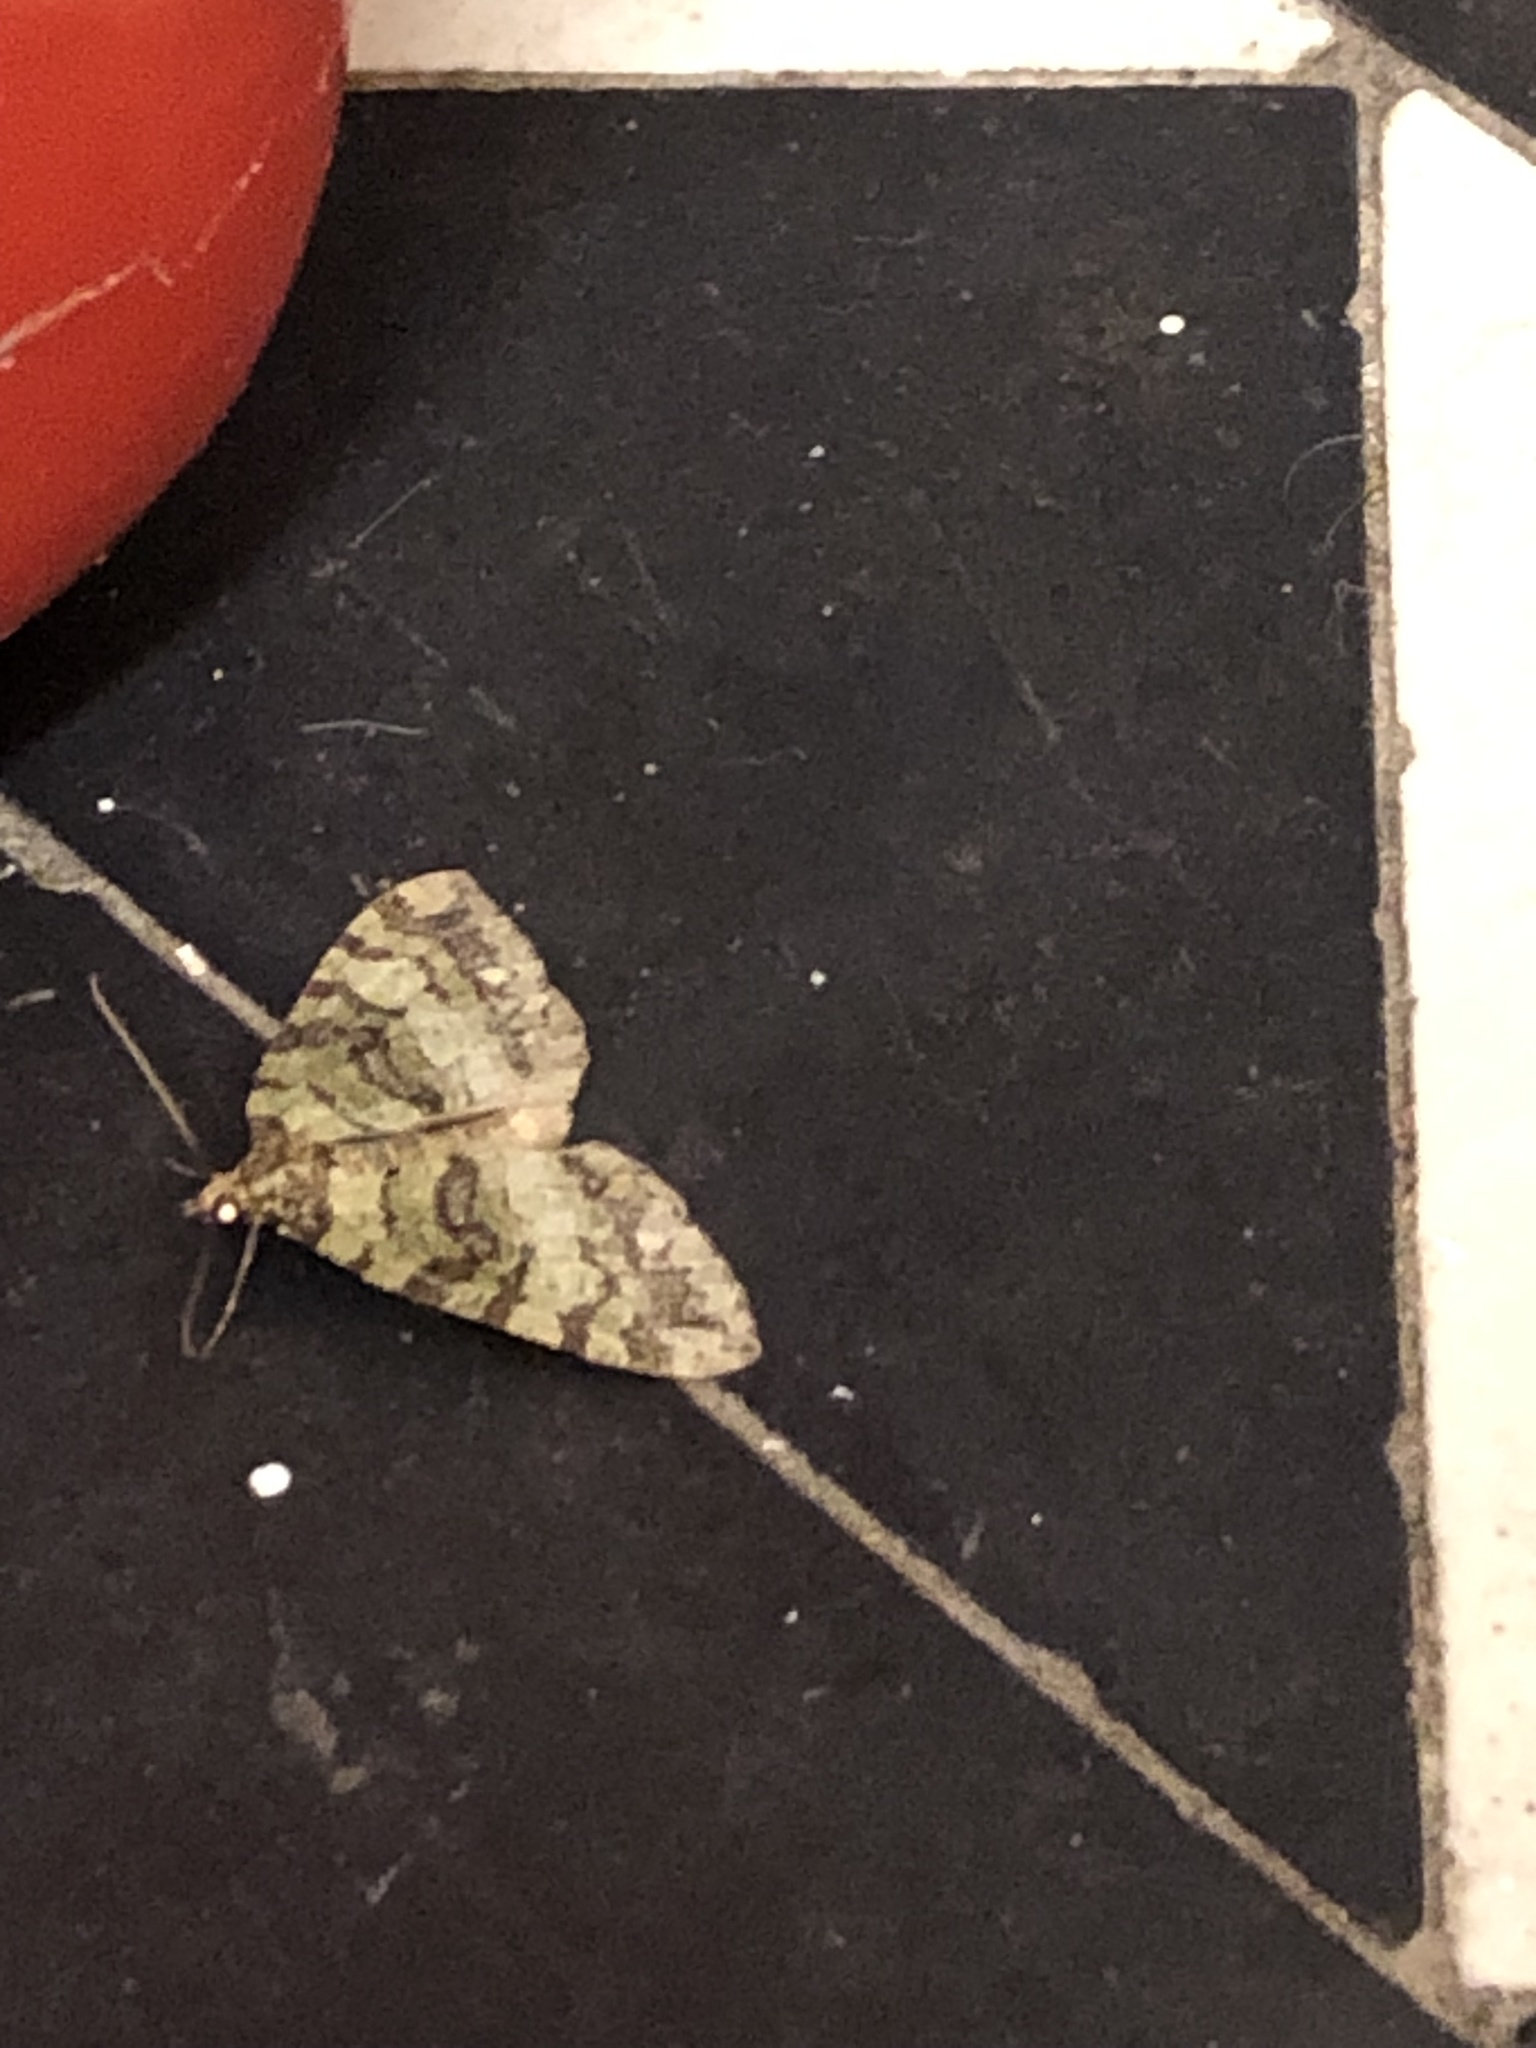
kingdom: Animalia
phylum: Arthropoda
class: Insecta
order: Lepidoptera
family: Geometridae
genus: Hydriomena
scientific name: Hydriomena furcata
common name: July highflyer
